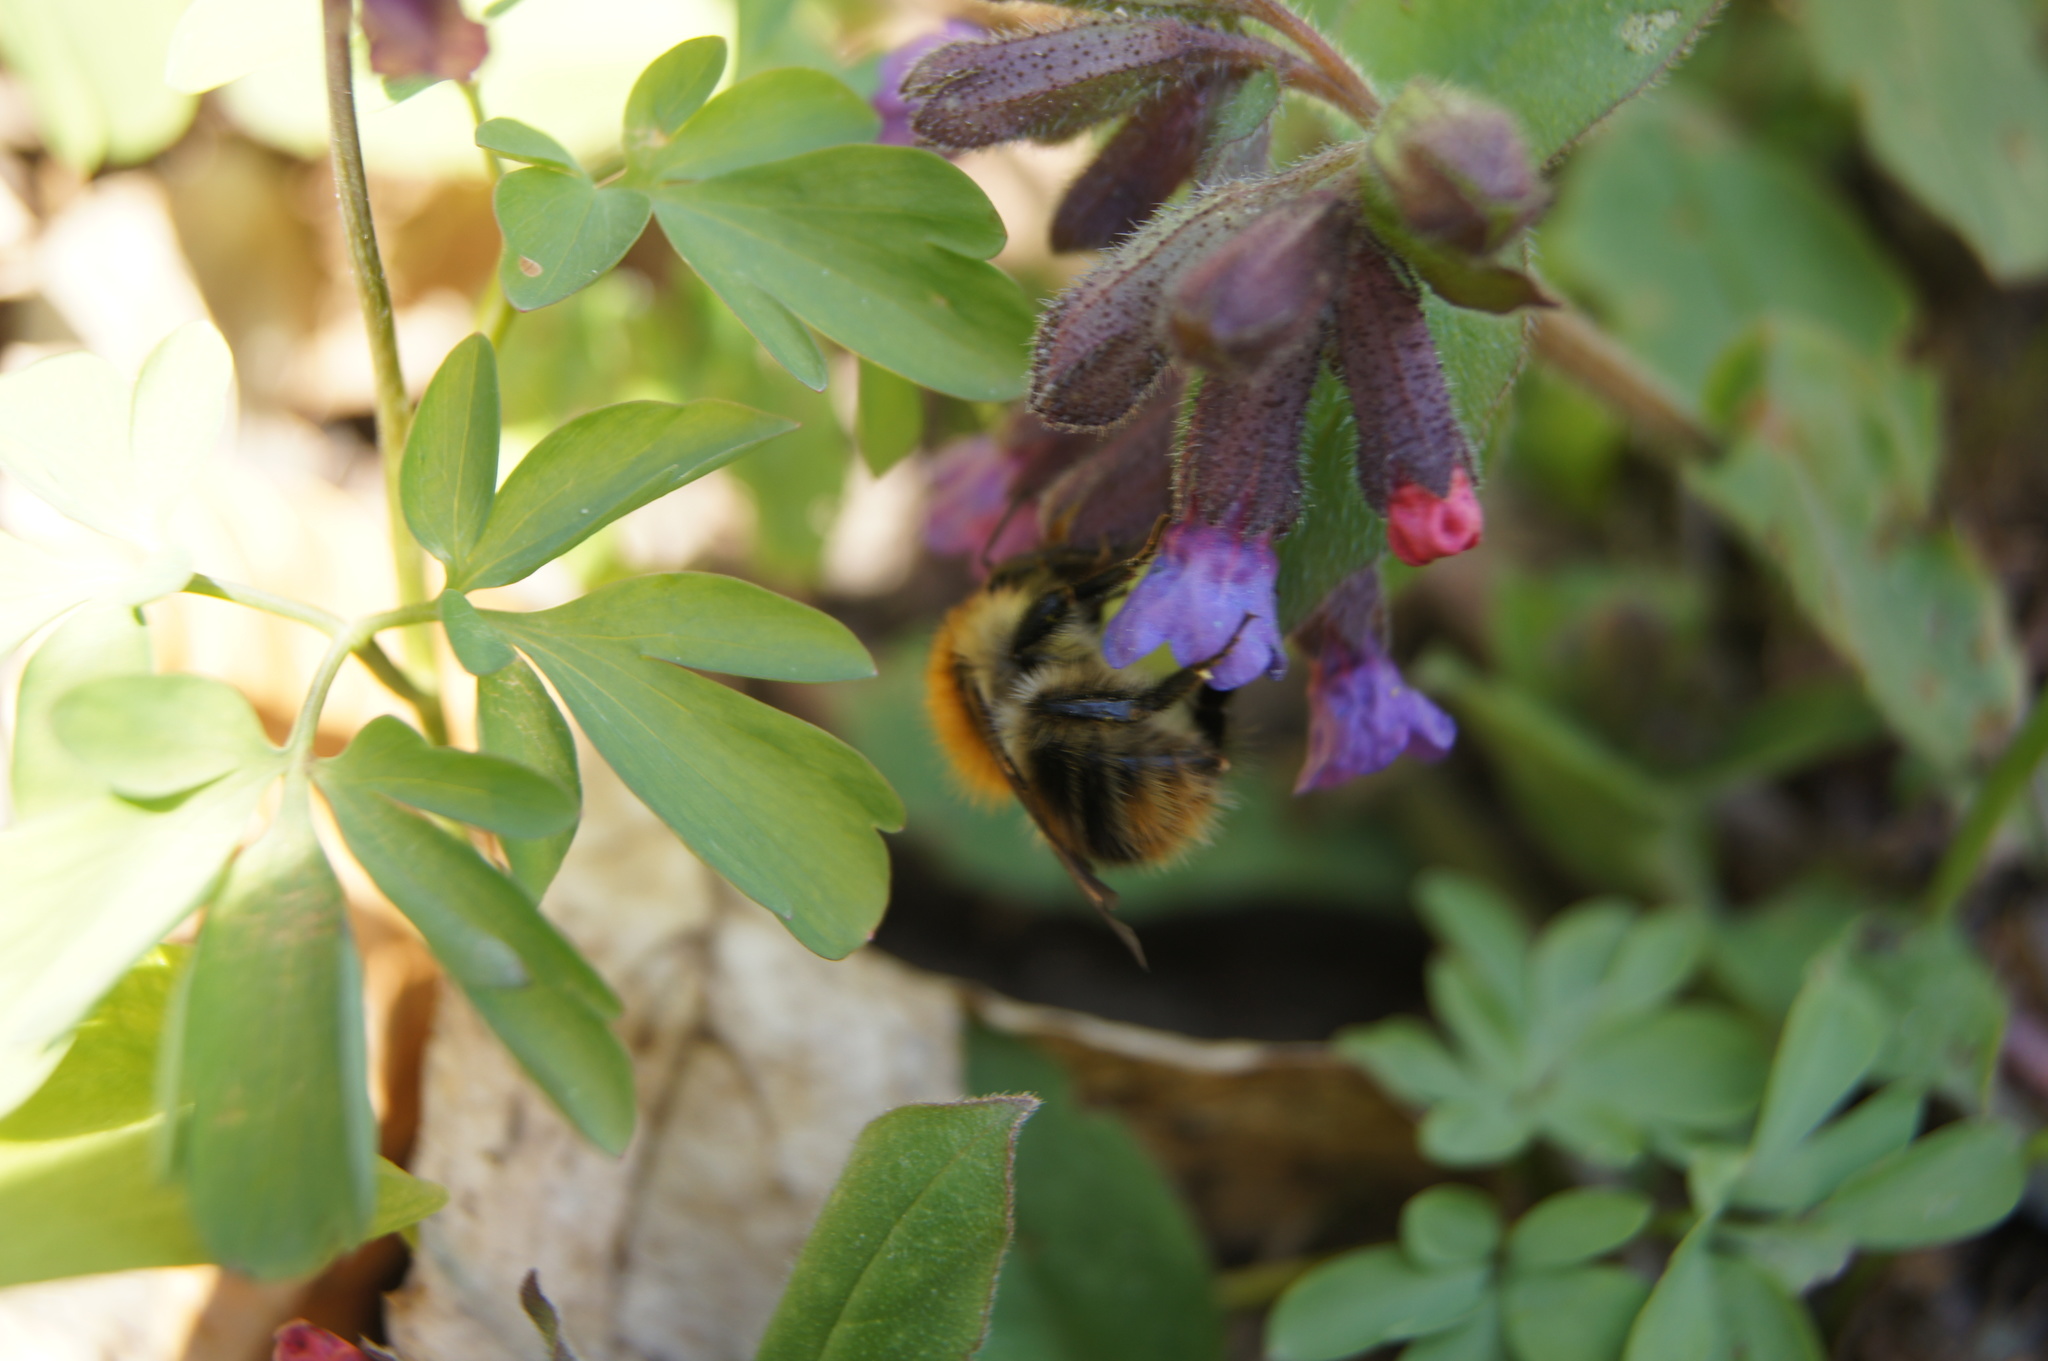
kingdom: Animalia
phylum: Arthropoda
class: Insecta
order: Hymenoptera
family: Apidae
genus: Bombus
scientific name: Bombus pascuorum
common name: Common carder bee
